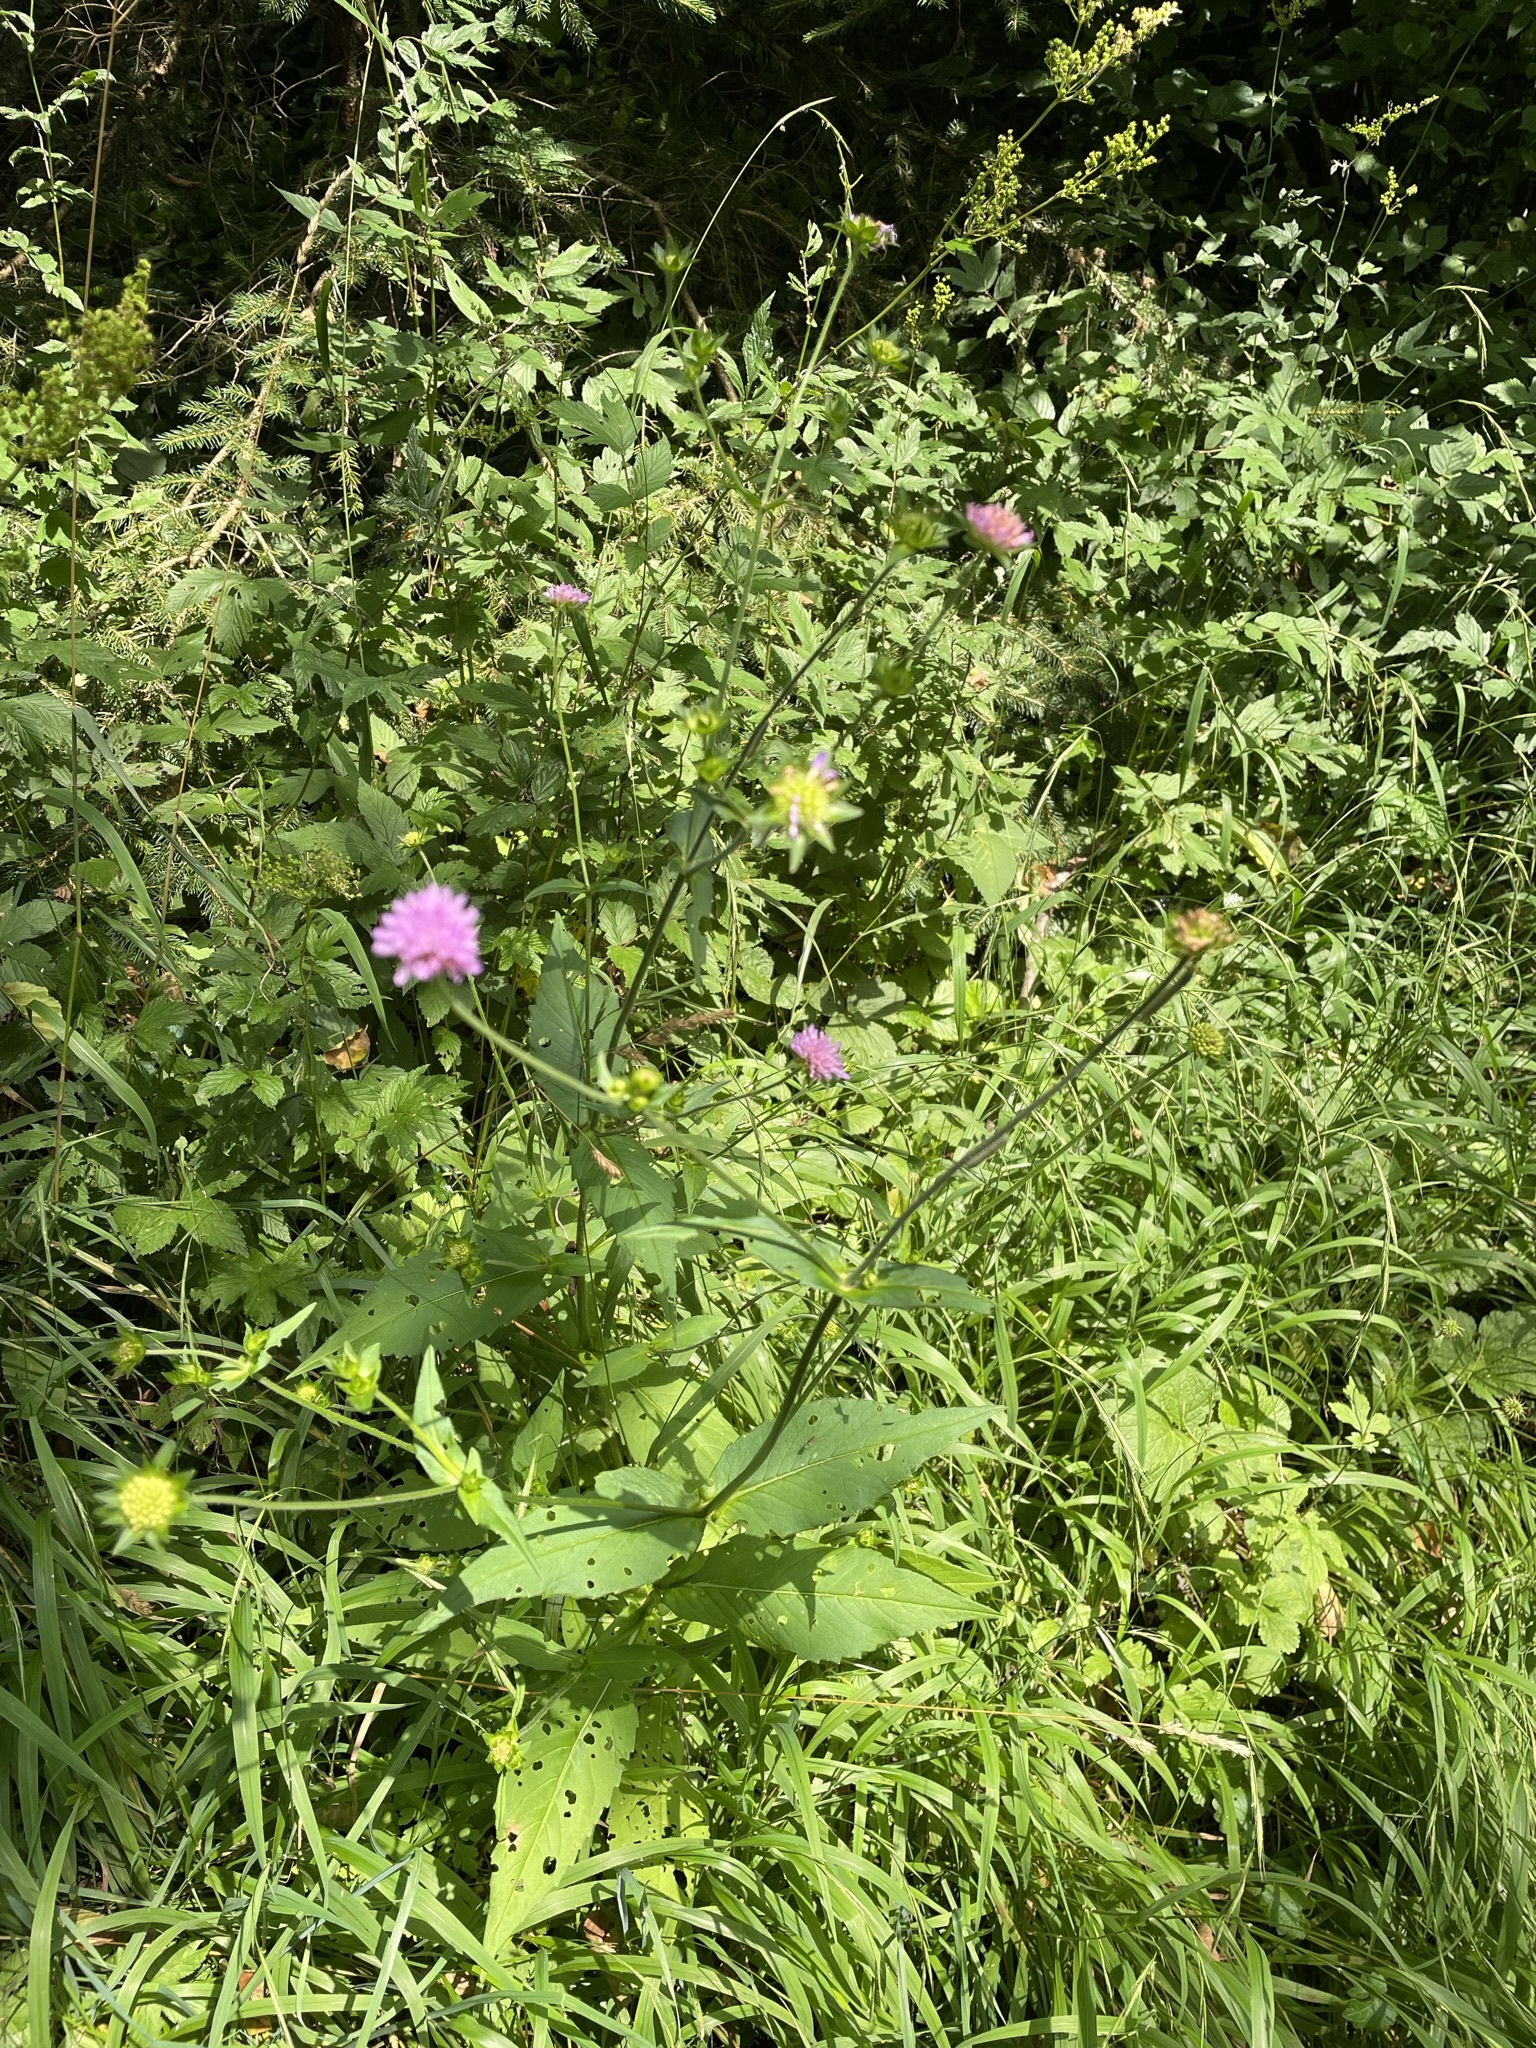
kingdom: Plantae
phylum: Tracheophyta
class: Magnoliopsida
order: Dipsacales
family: Caprifoliaceae
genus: Knautia
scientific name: Knautia dipsacifolia
